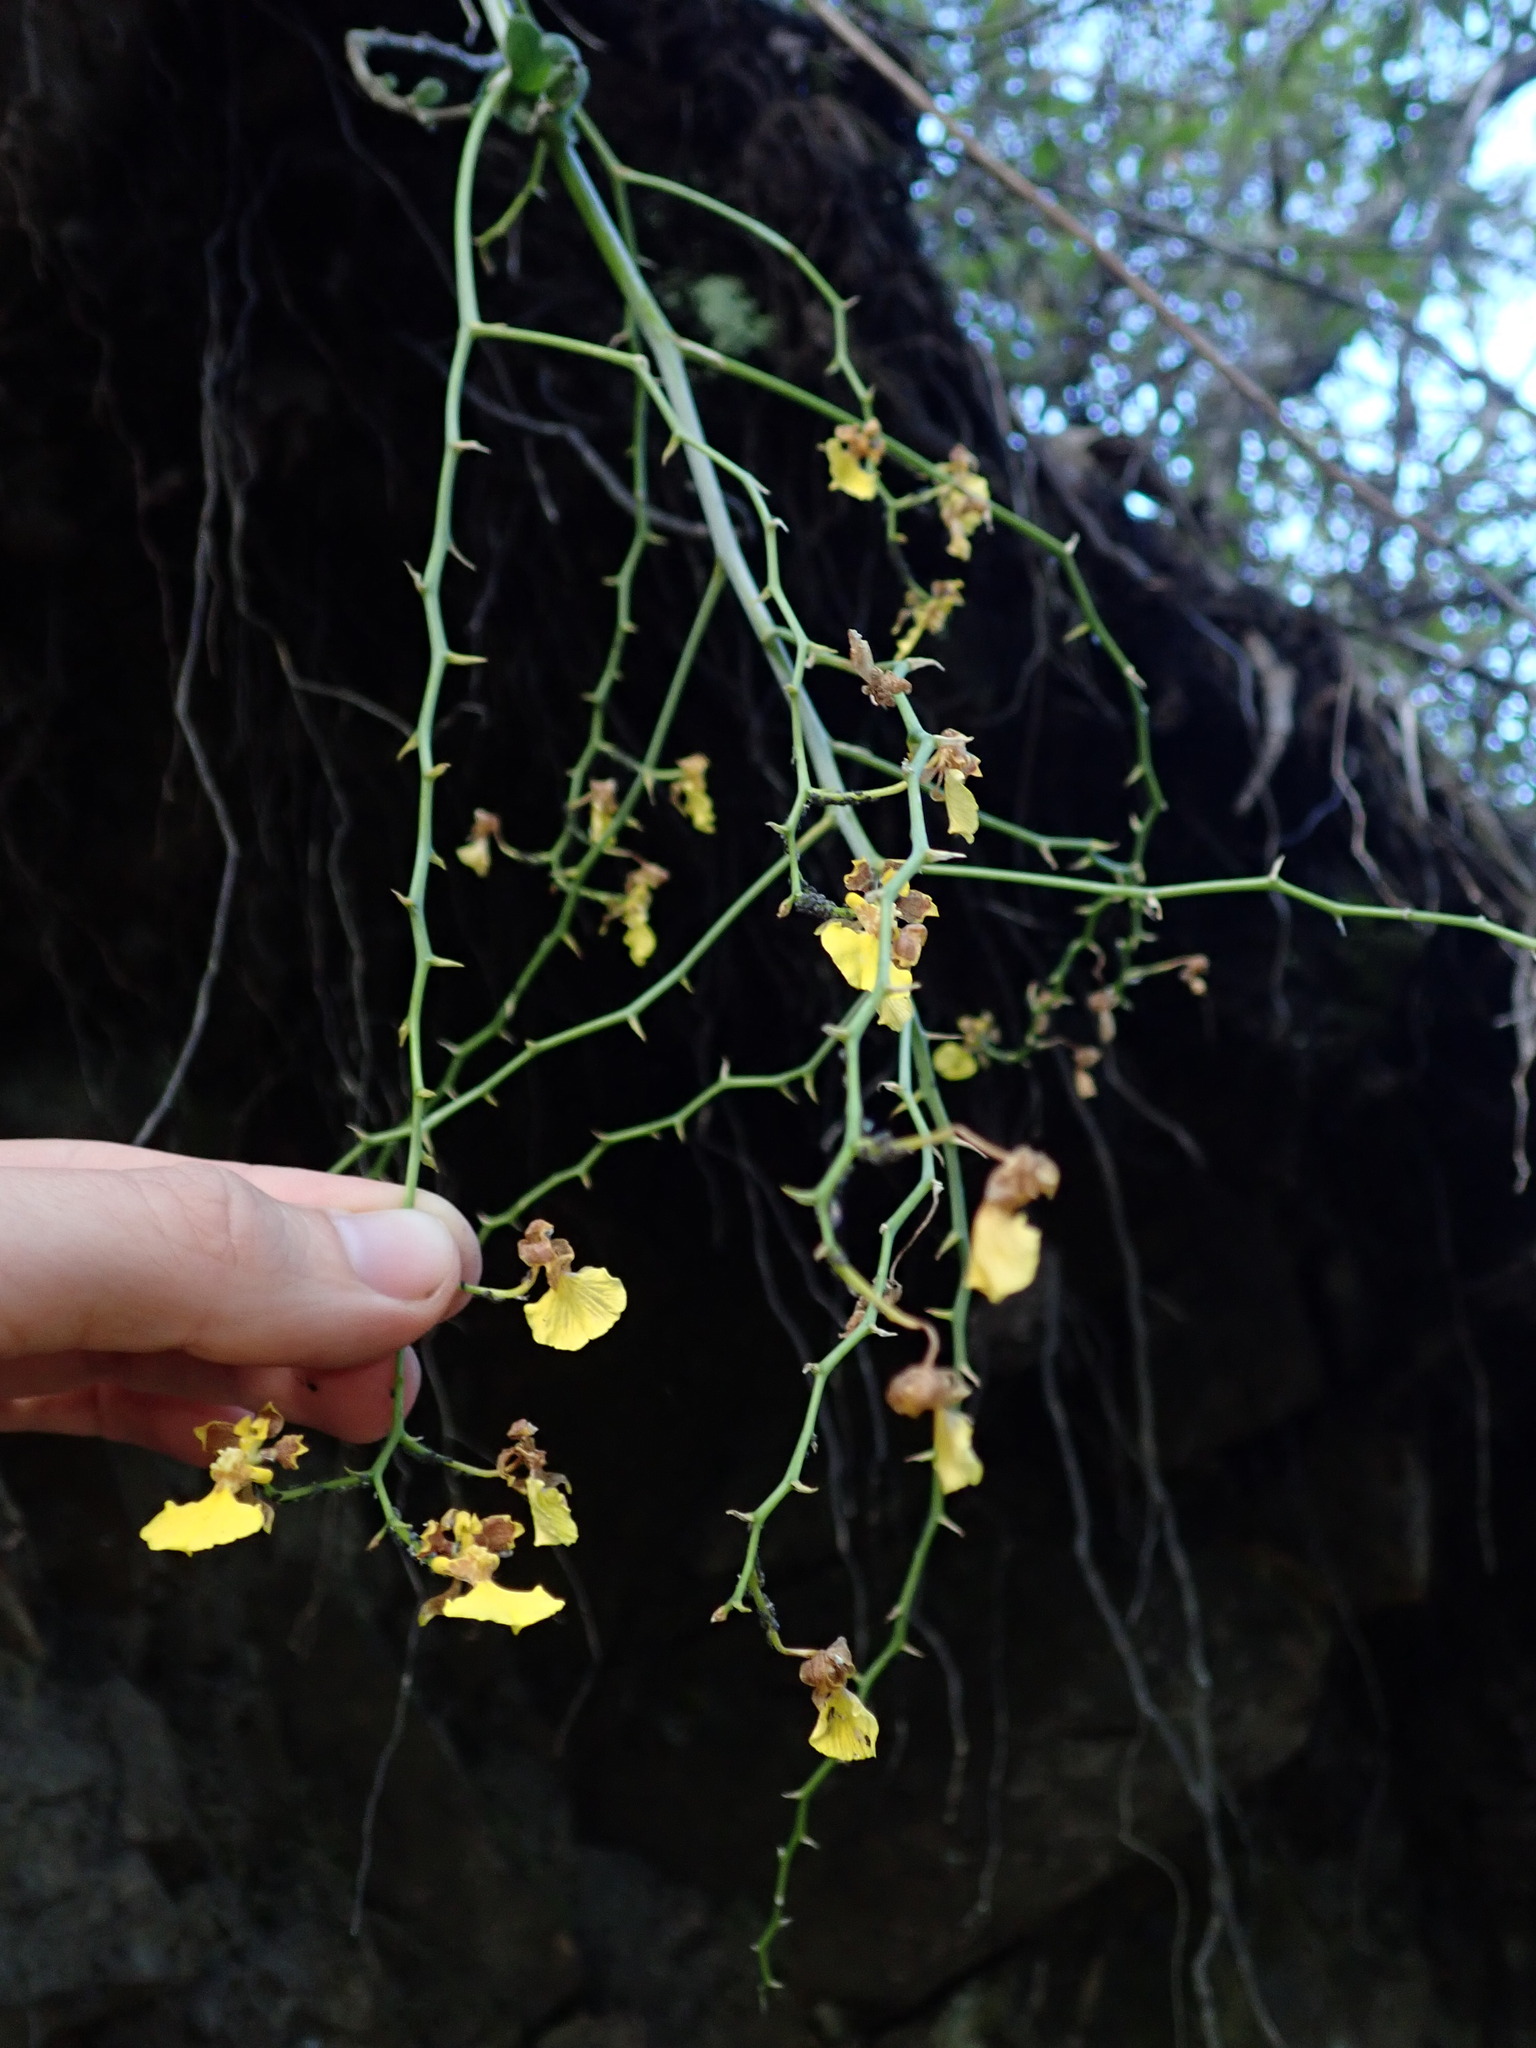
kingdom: Plantae
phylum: Tracheophyta
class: Liliopsida
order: Asparagales
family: Orchidaceae
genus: Vitekorchis
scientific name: Vitekorchis vasquezii
